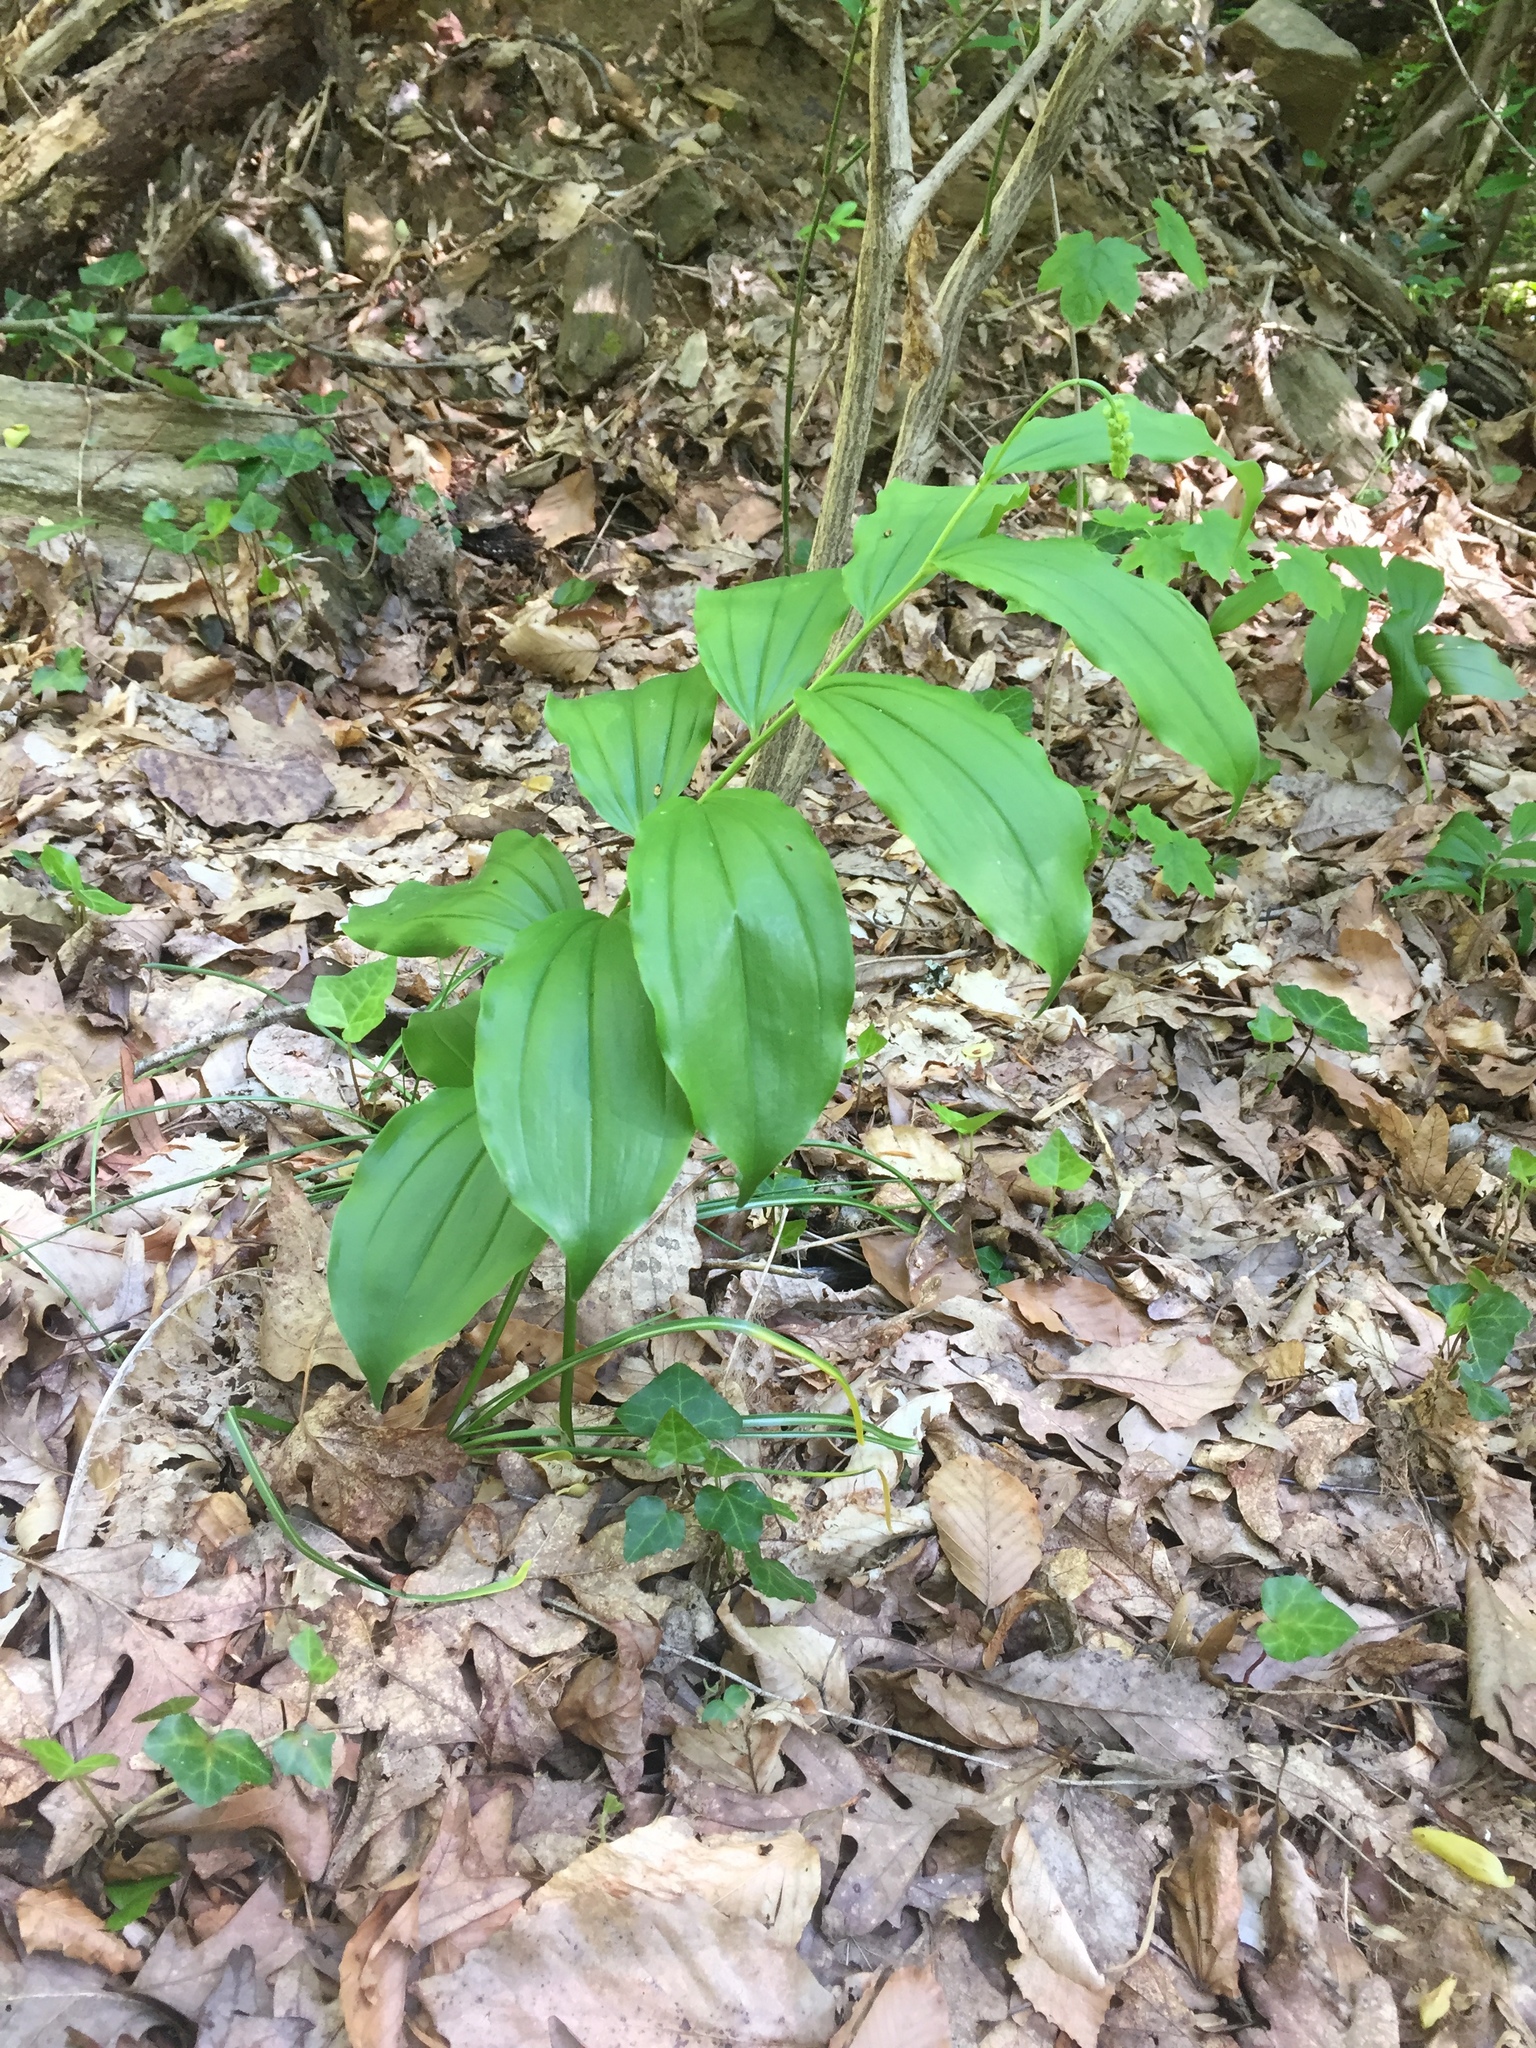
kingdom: Plantae
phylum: Tracheophyta
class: Liliopsida
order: Asparagales
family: Asparagaceae
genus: Maianthemum
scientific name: Maianthemum racemosum
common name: False spikenard
